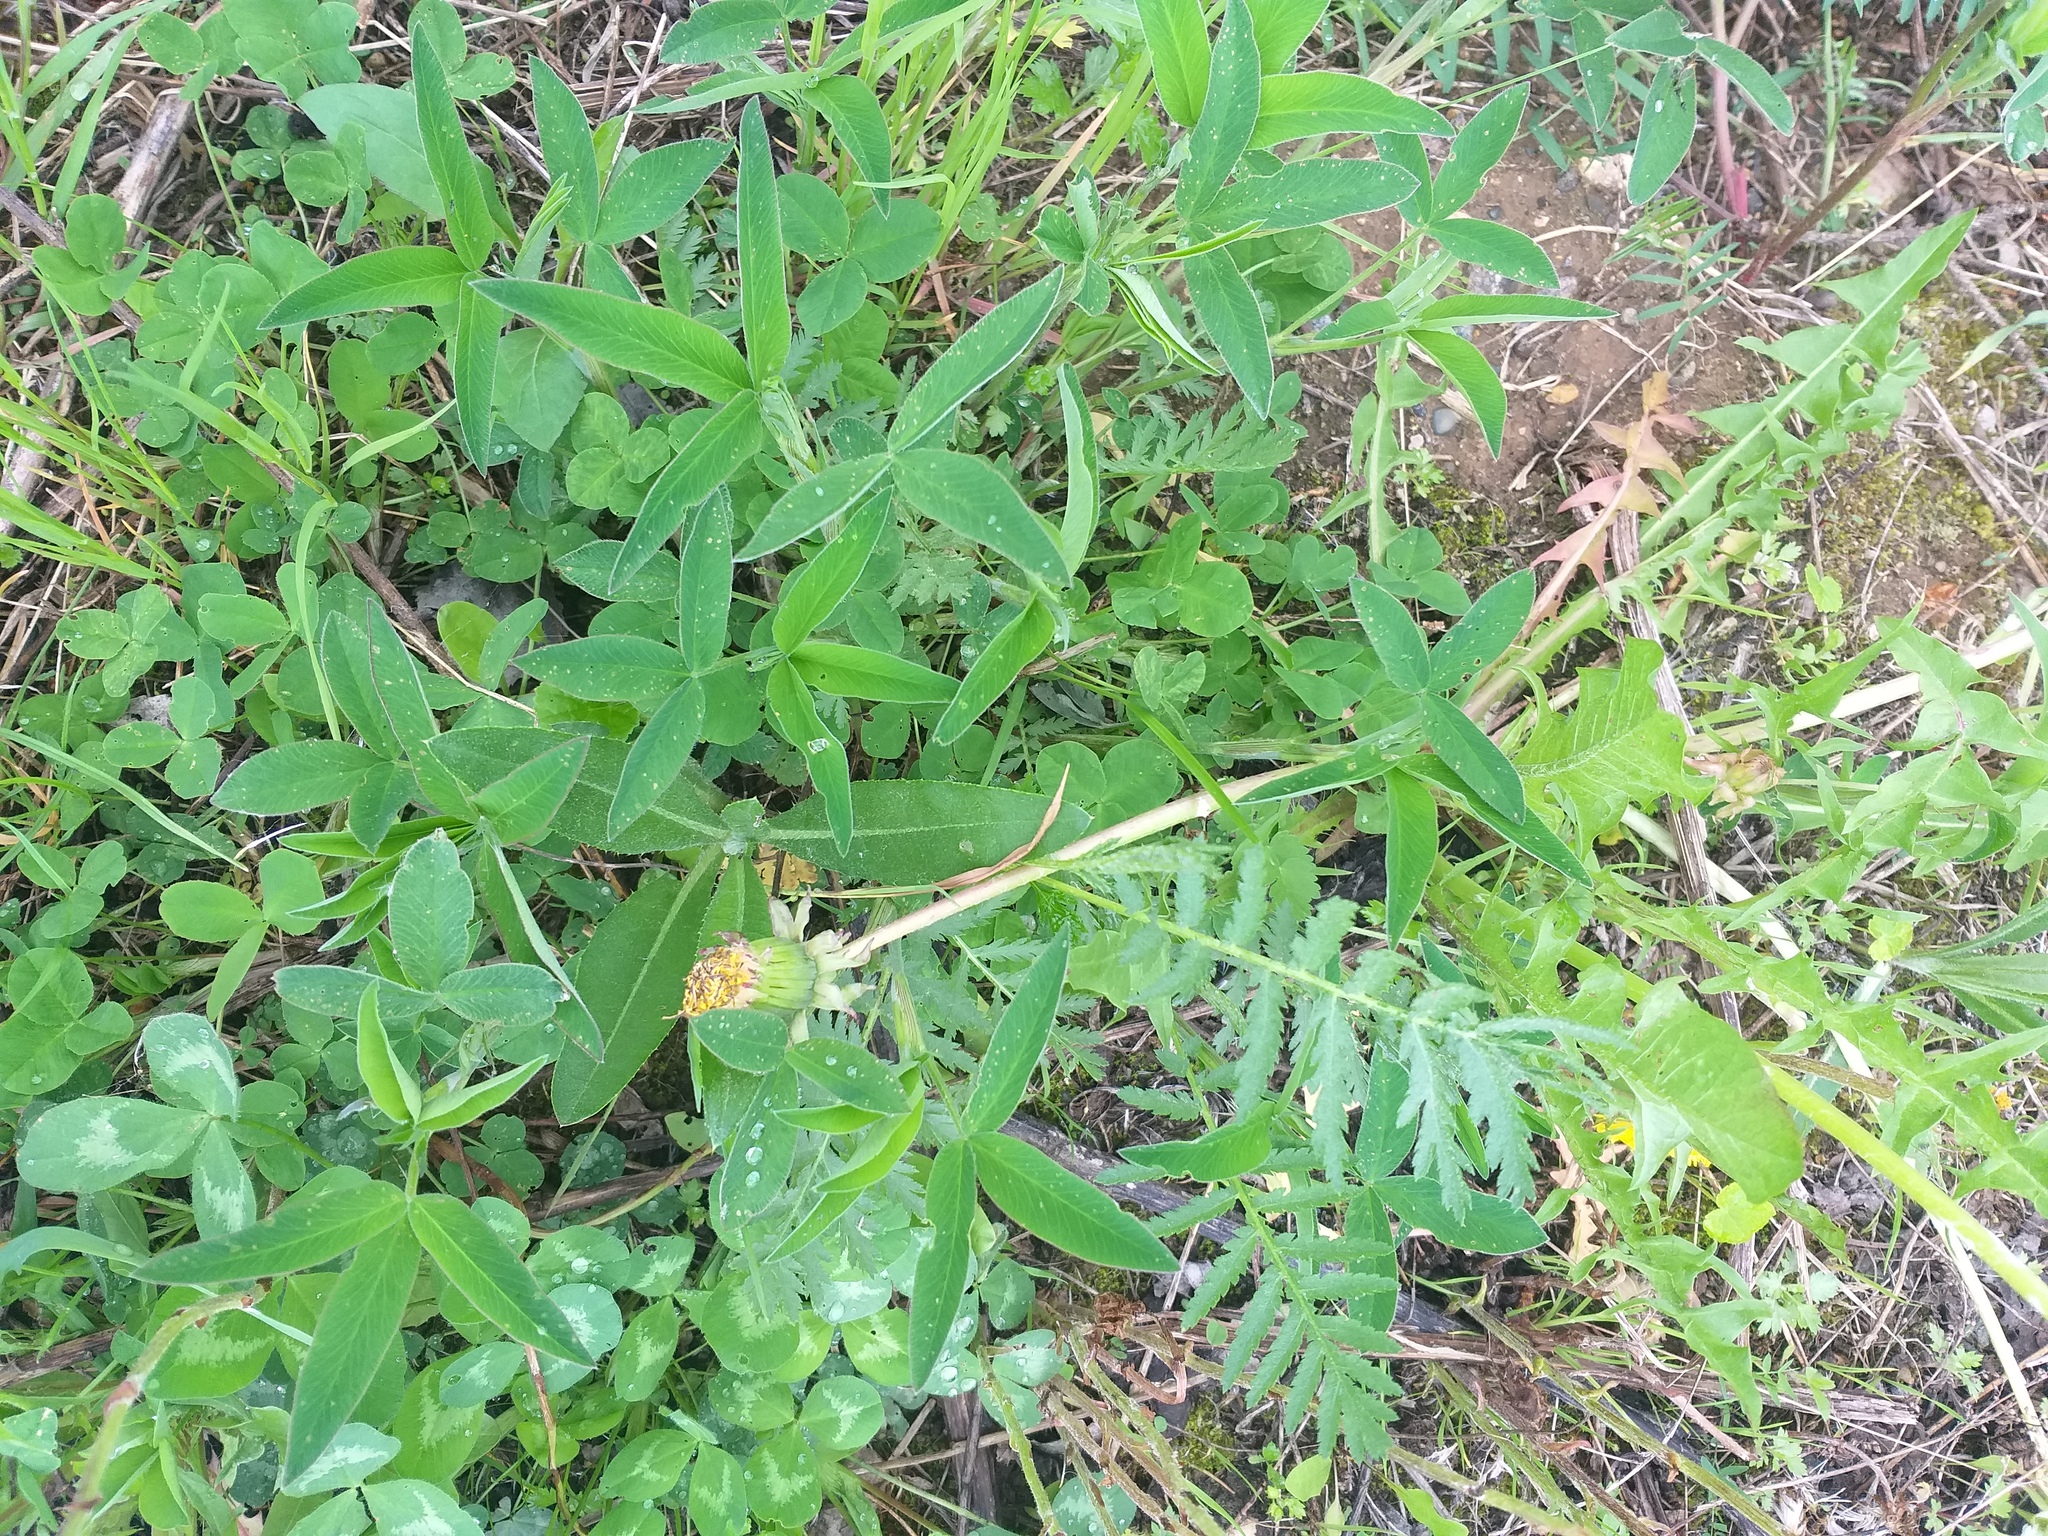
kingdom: Plantae
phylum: Tracheophyta
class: Magnoliopsida
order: Fabales
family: Fabaceae
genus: Trifolium
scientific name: Trifolium medium
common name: Zigzag clover
